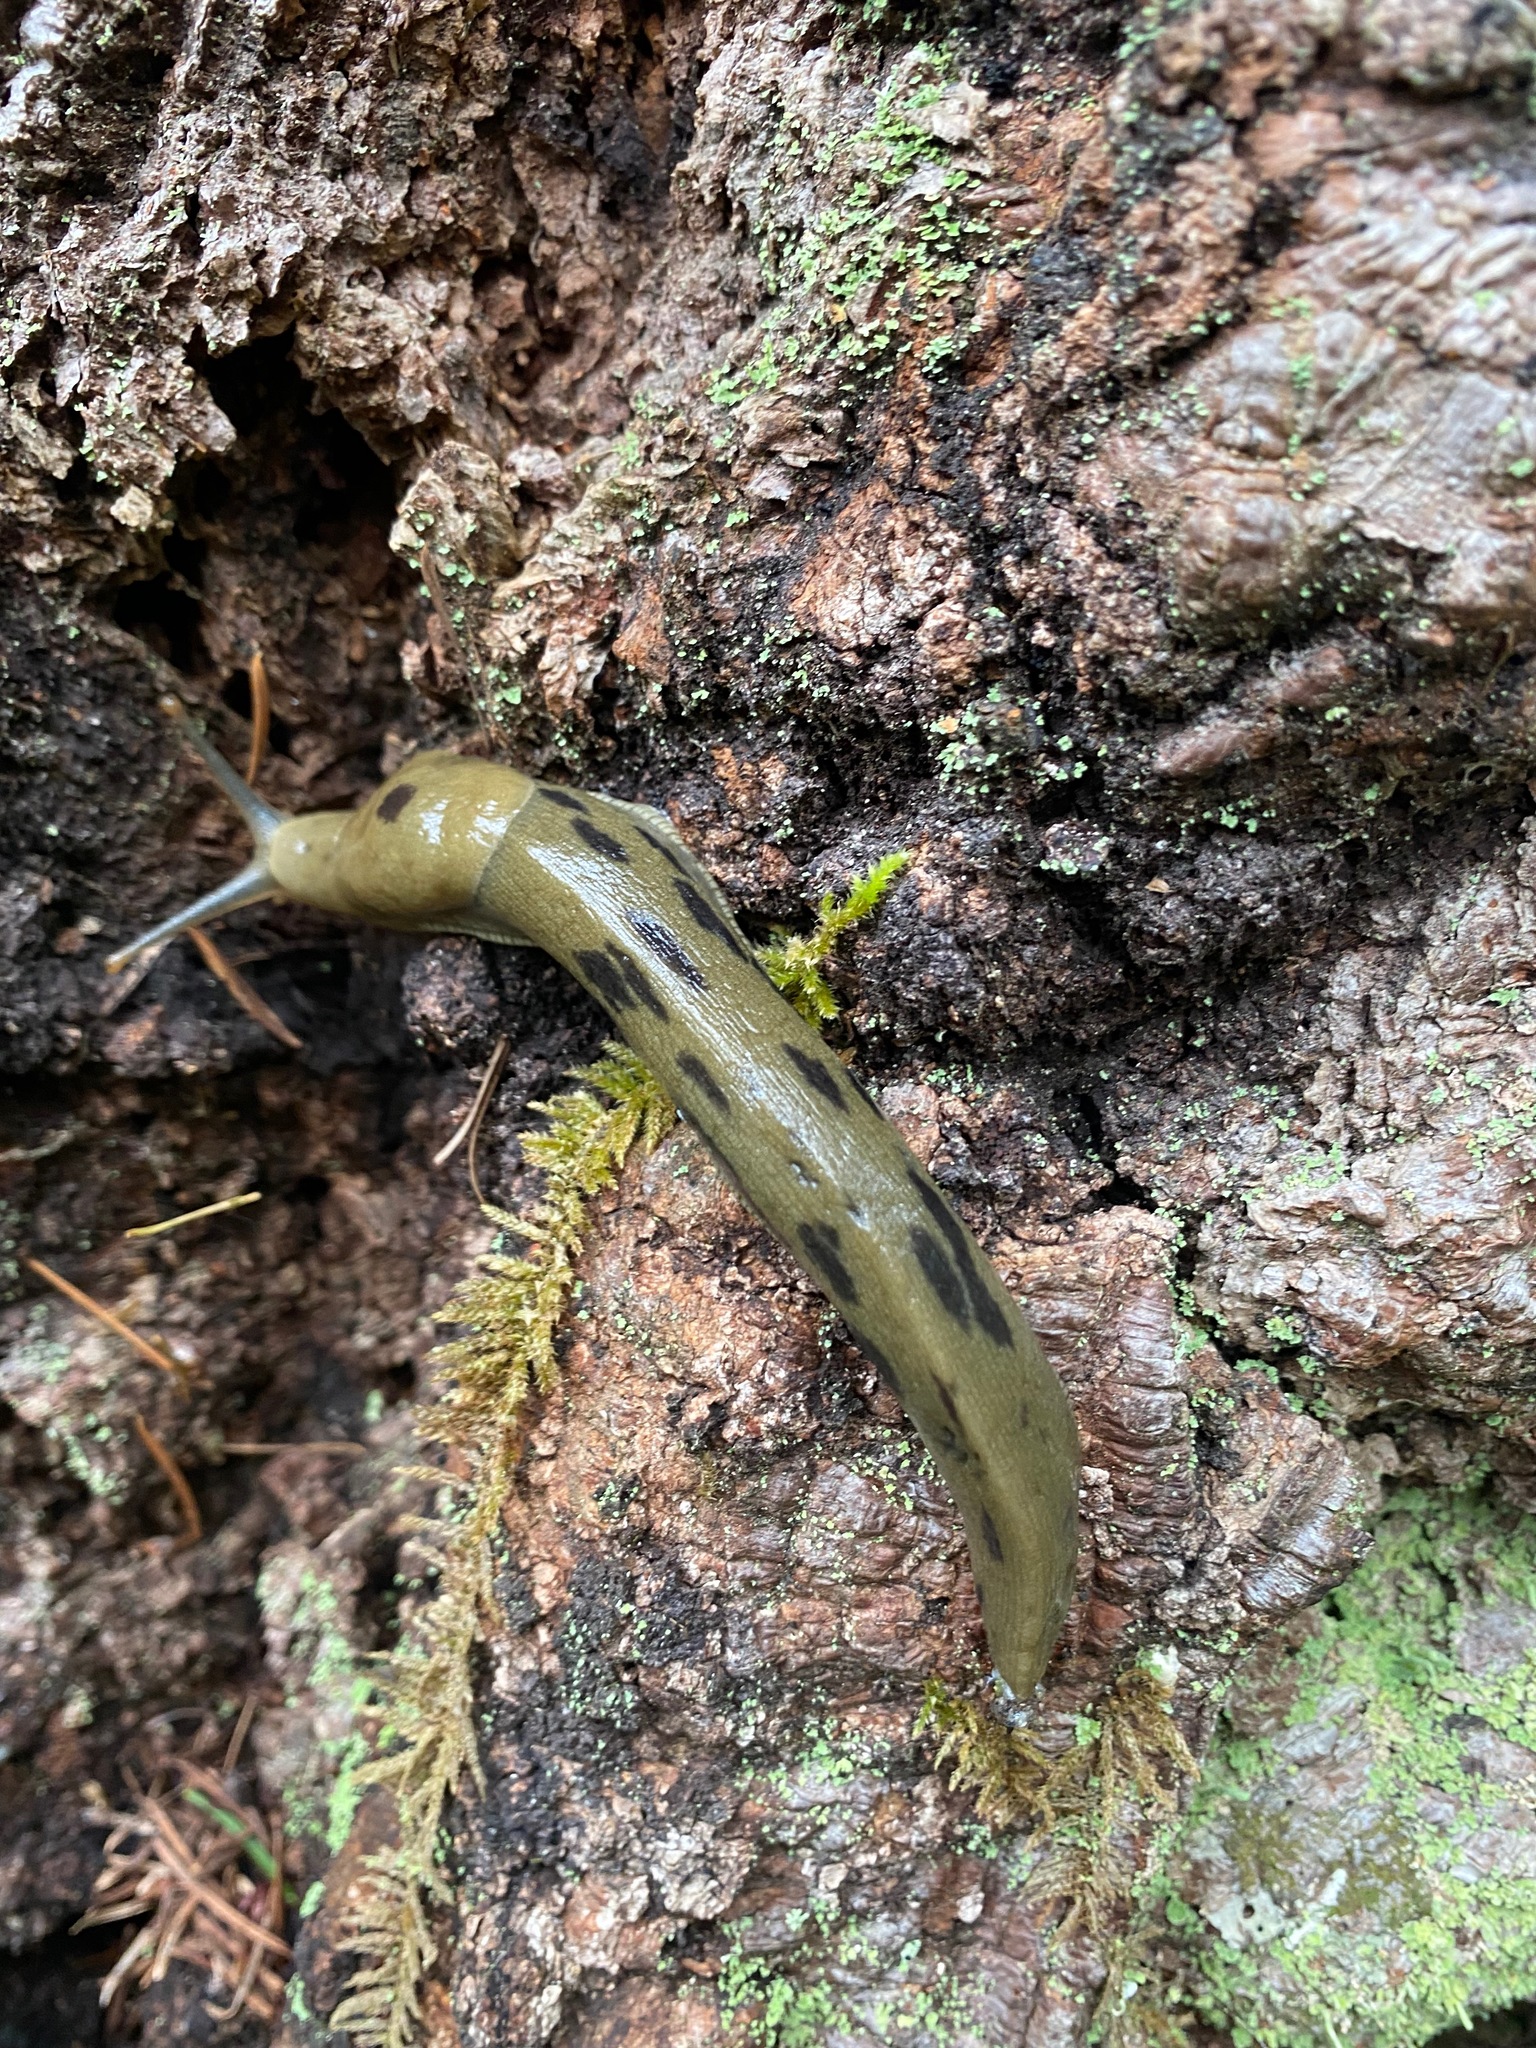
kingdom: Animalia
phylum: Mollusca
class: Gastropoda
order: Stylommatophora
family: Ariolimacidae
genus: Ariolimax
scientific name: Ariolimax columbianus
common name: Pacific banana slug
